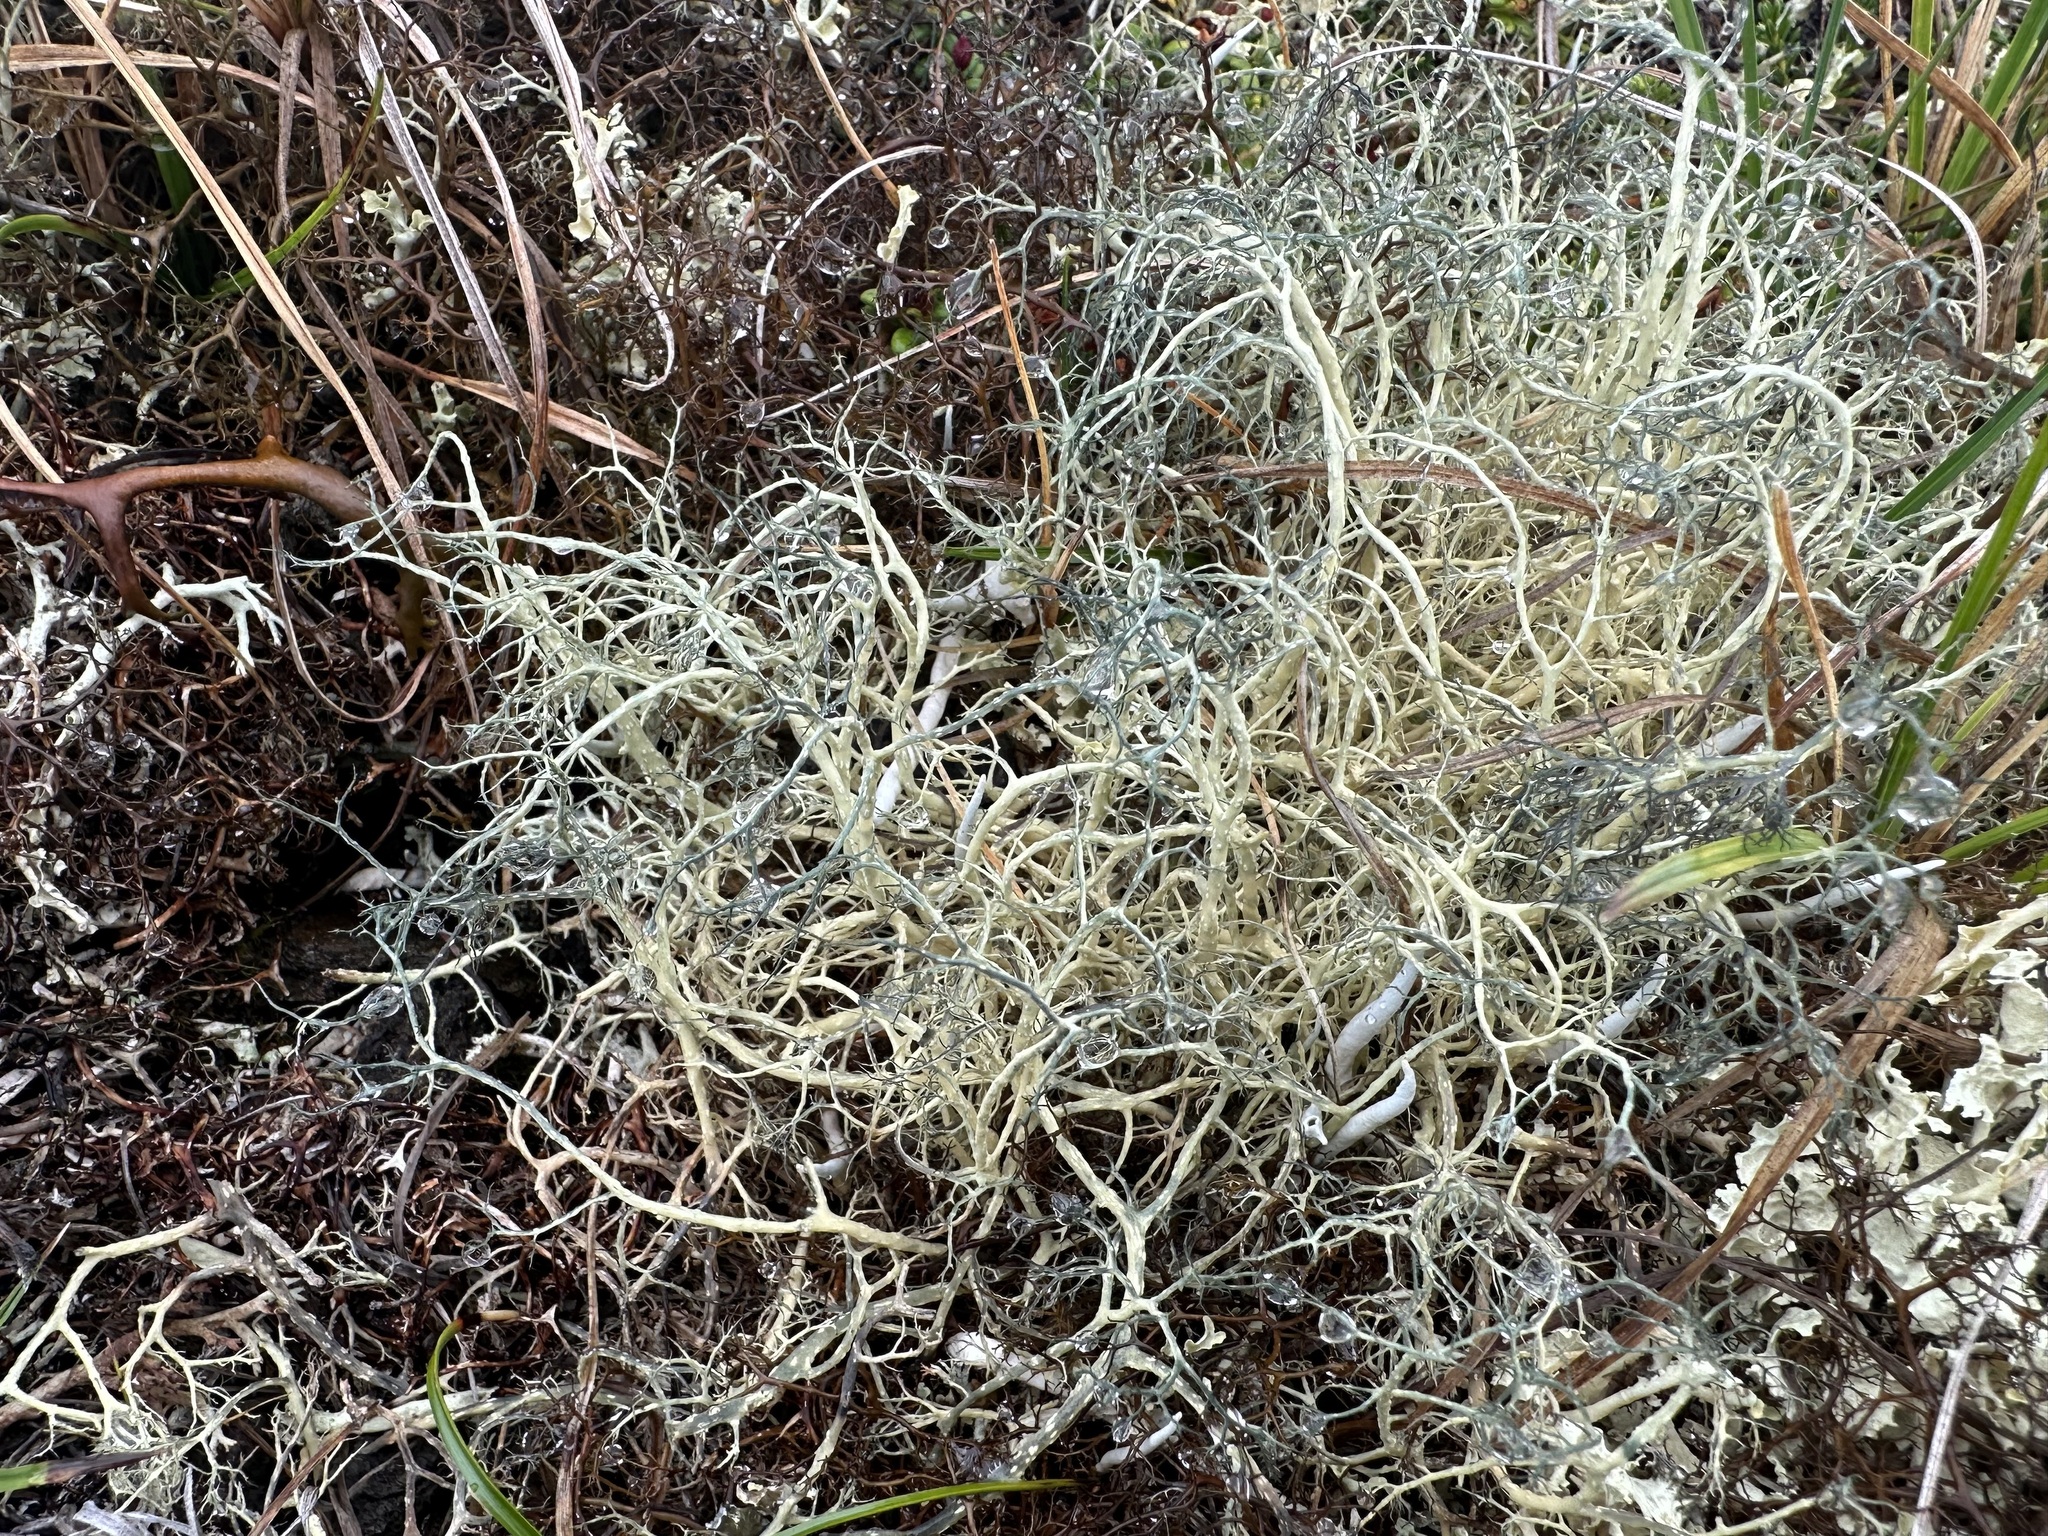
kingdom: Fungi
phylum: Ascomycota
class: Lecanoromycetes
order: Lecanorales
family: Parmeliaceae
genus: Alectoria
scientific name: Alectoria ochroleuca
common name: Alpine sulphur-tresses
